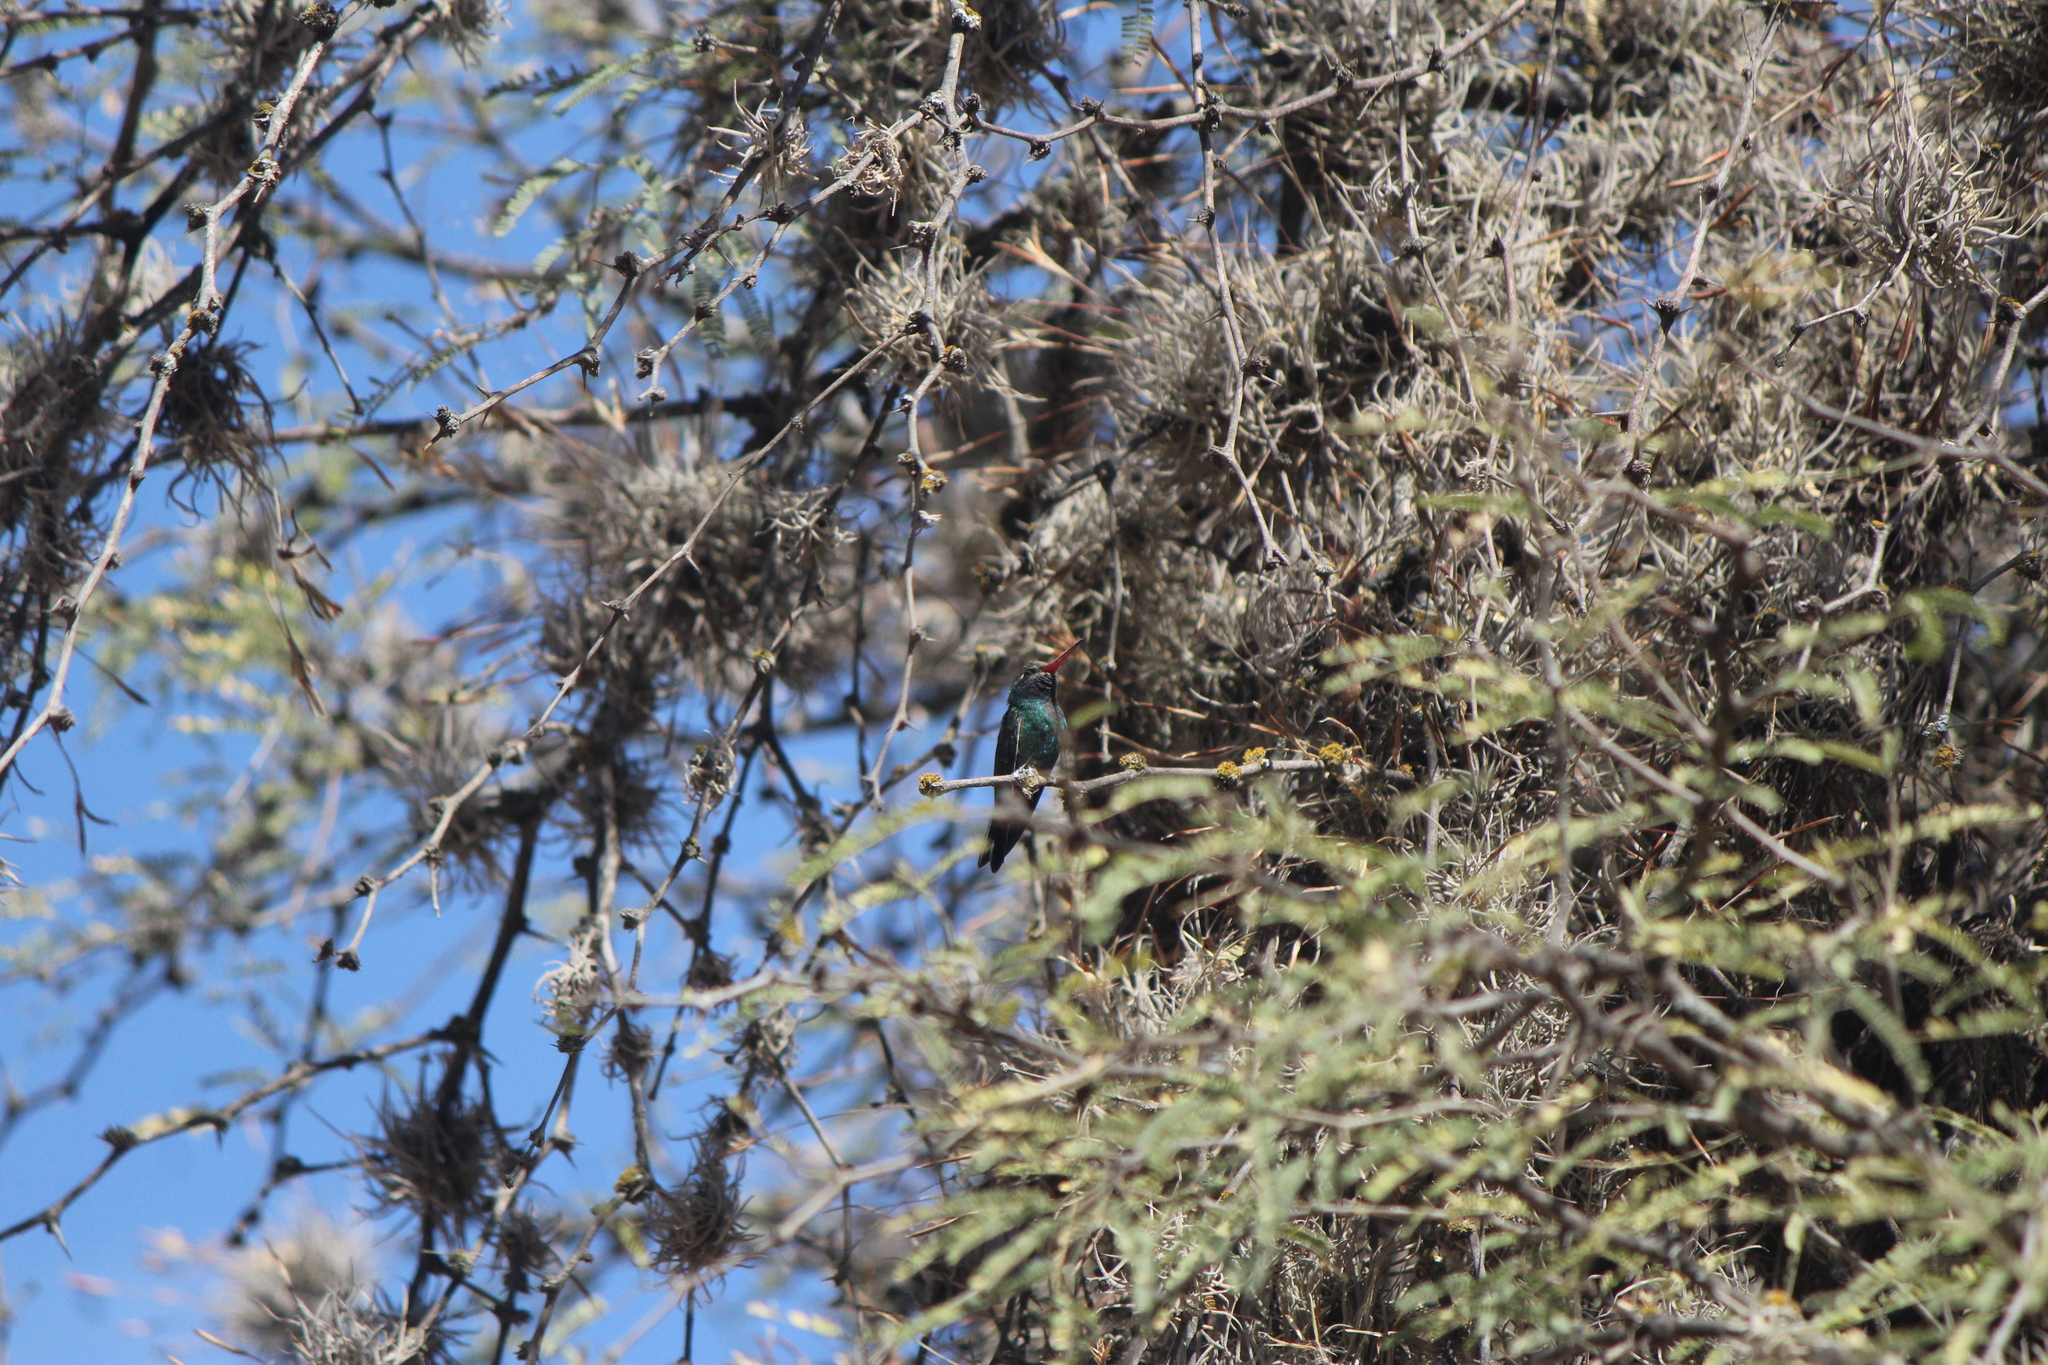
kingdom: Animalia
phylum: Chordata
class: Aves
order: Apodiformes
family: Trochilidae
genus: Cynanthus
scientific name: Cynanthus latirostris
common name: Broad-billed hummingbird
